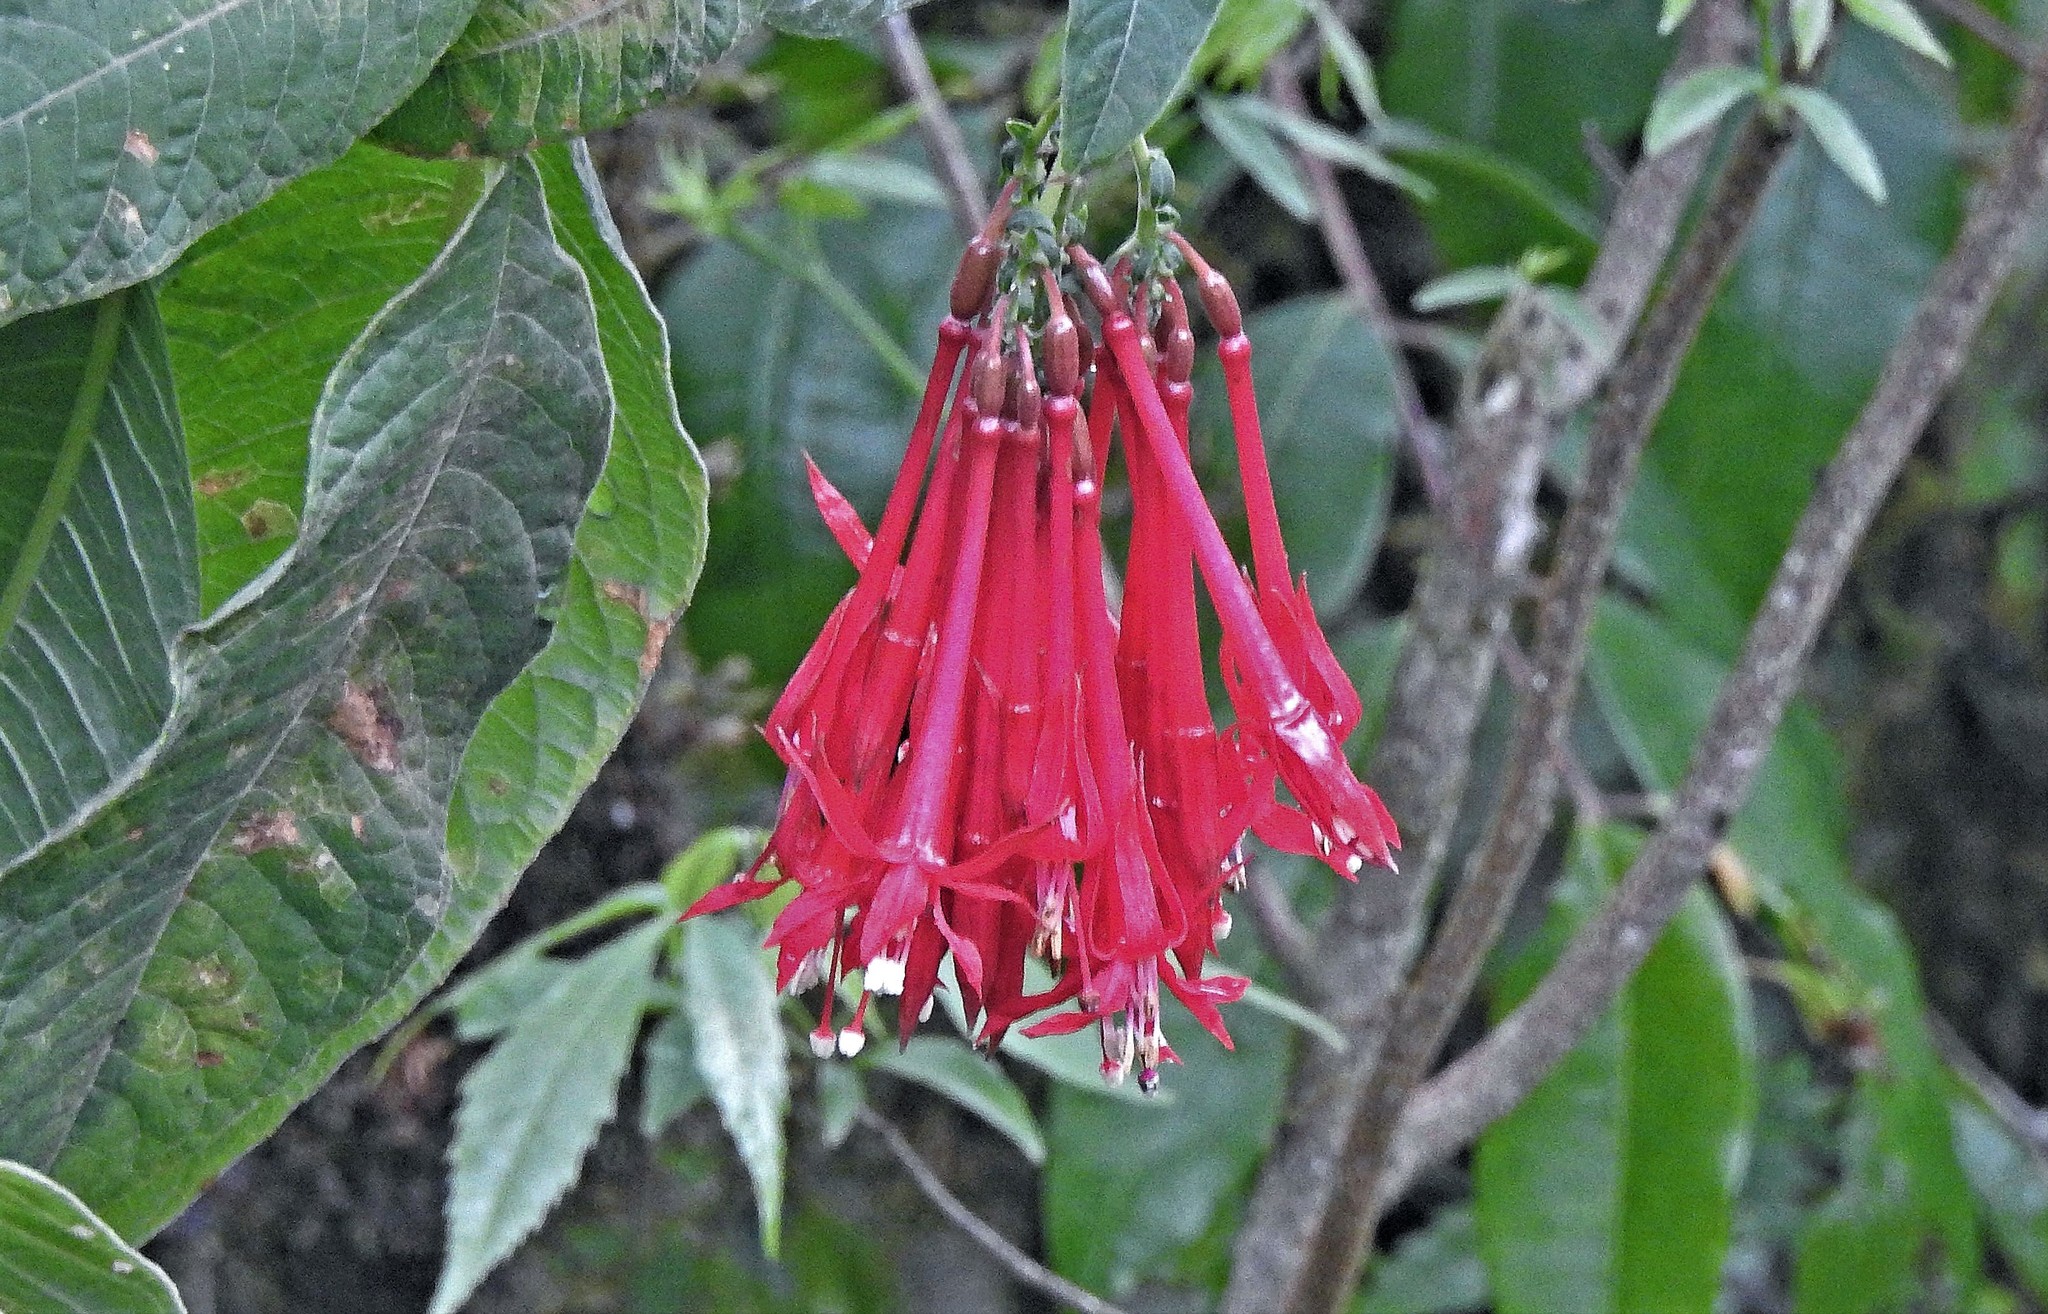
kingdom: Plantae
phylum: Tracheophyta
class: Magnoliopsida
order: Myrtales
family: Onagraceae
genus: Fuchsia
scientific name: Fuchsia boliviana
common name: Bolivian fuchsia
